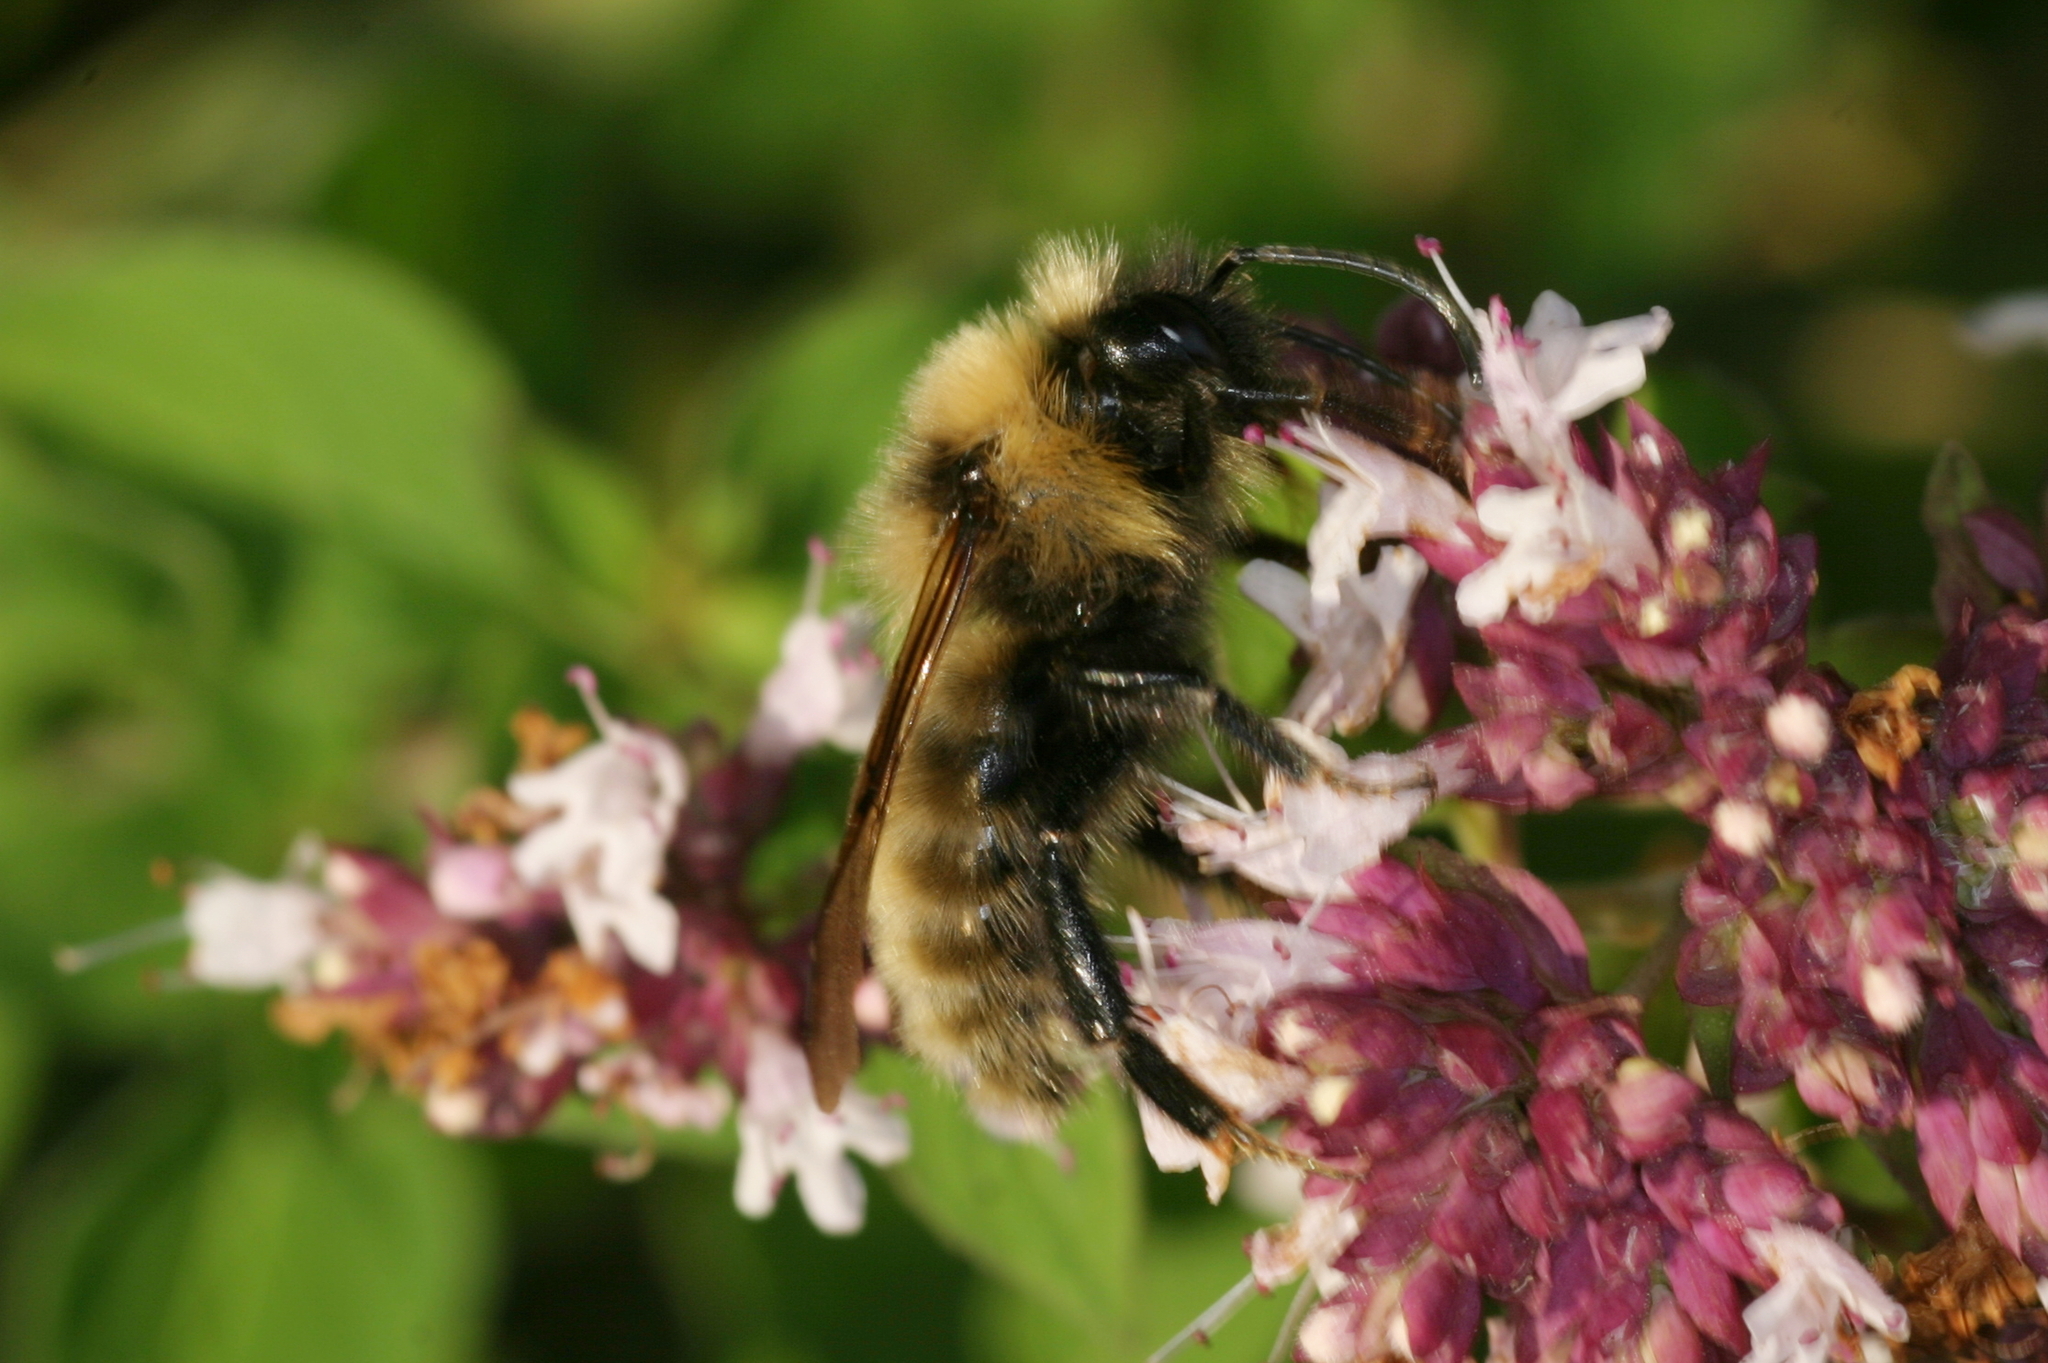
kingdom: Animalia
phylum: Arthropoda
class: Insecta
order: Hymenoptera
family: Apidae
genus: Bombus
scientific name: Bombus campestris
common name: Field cuckoo-bee
